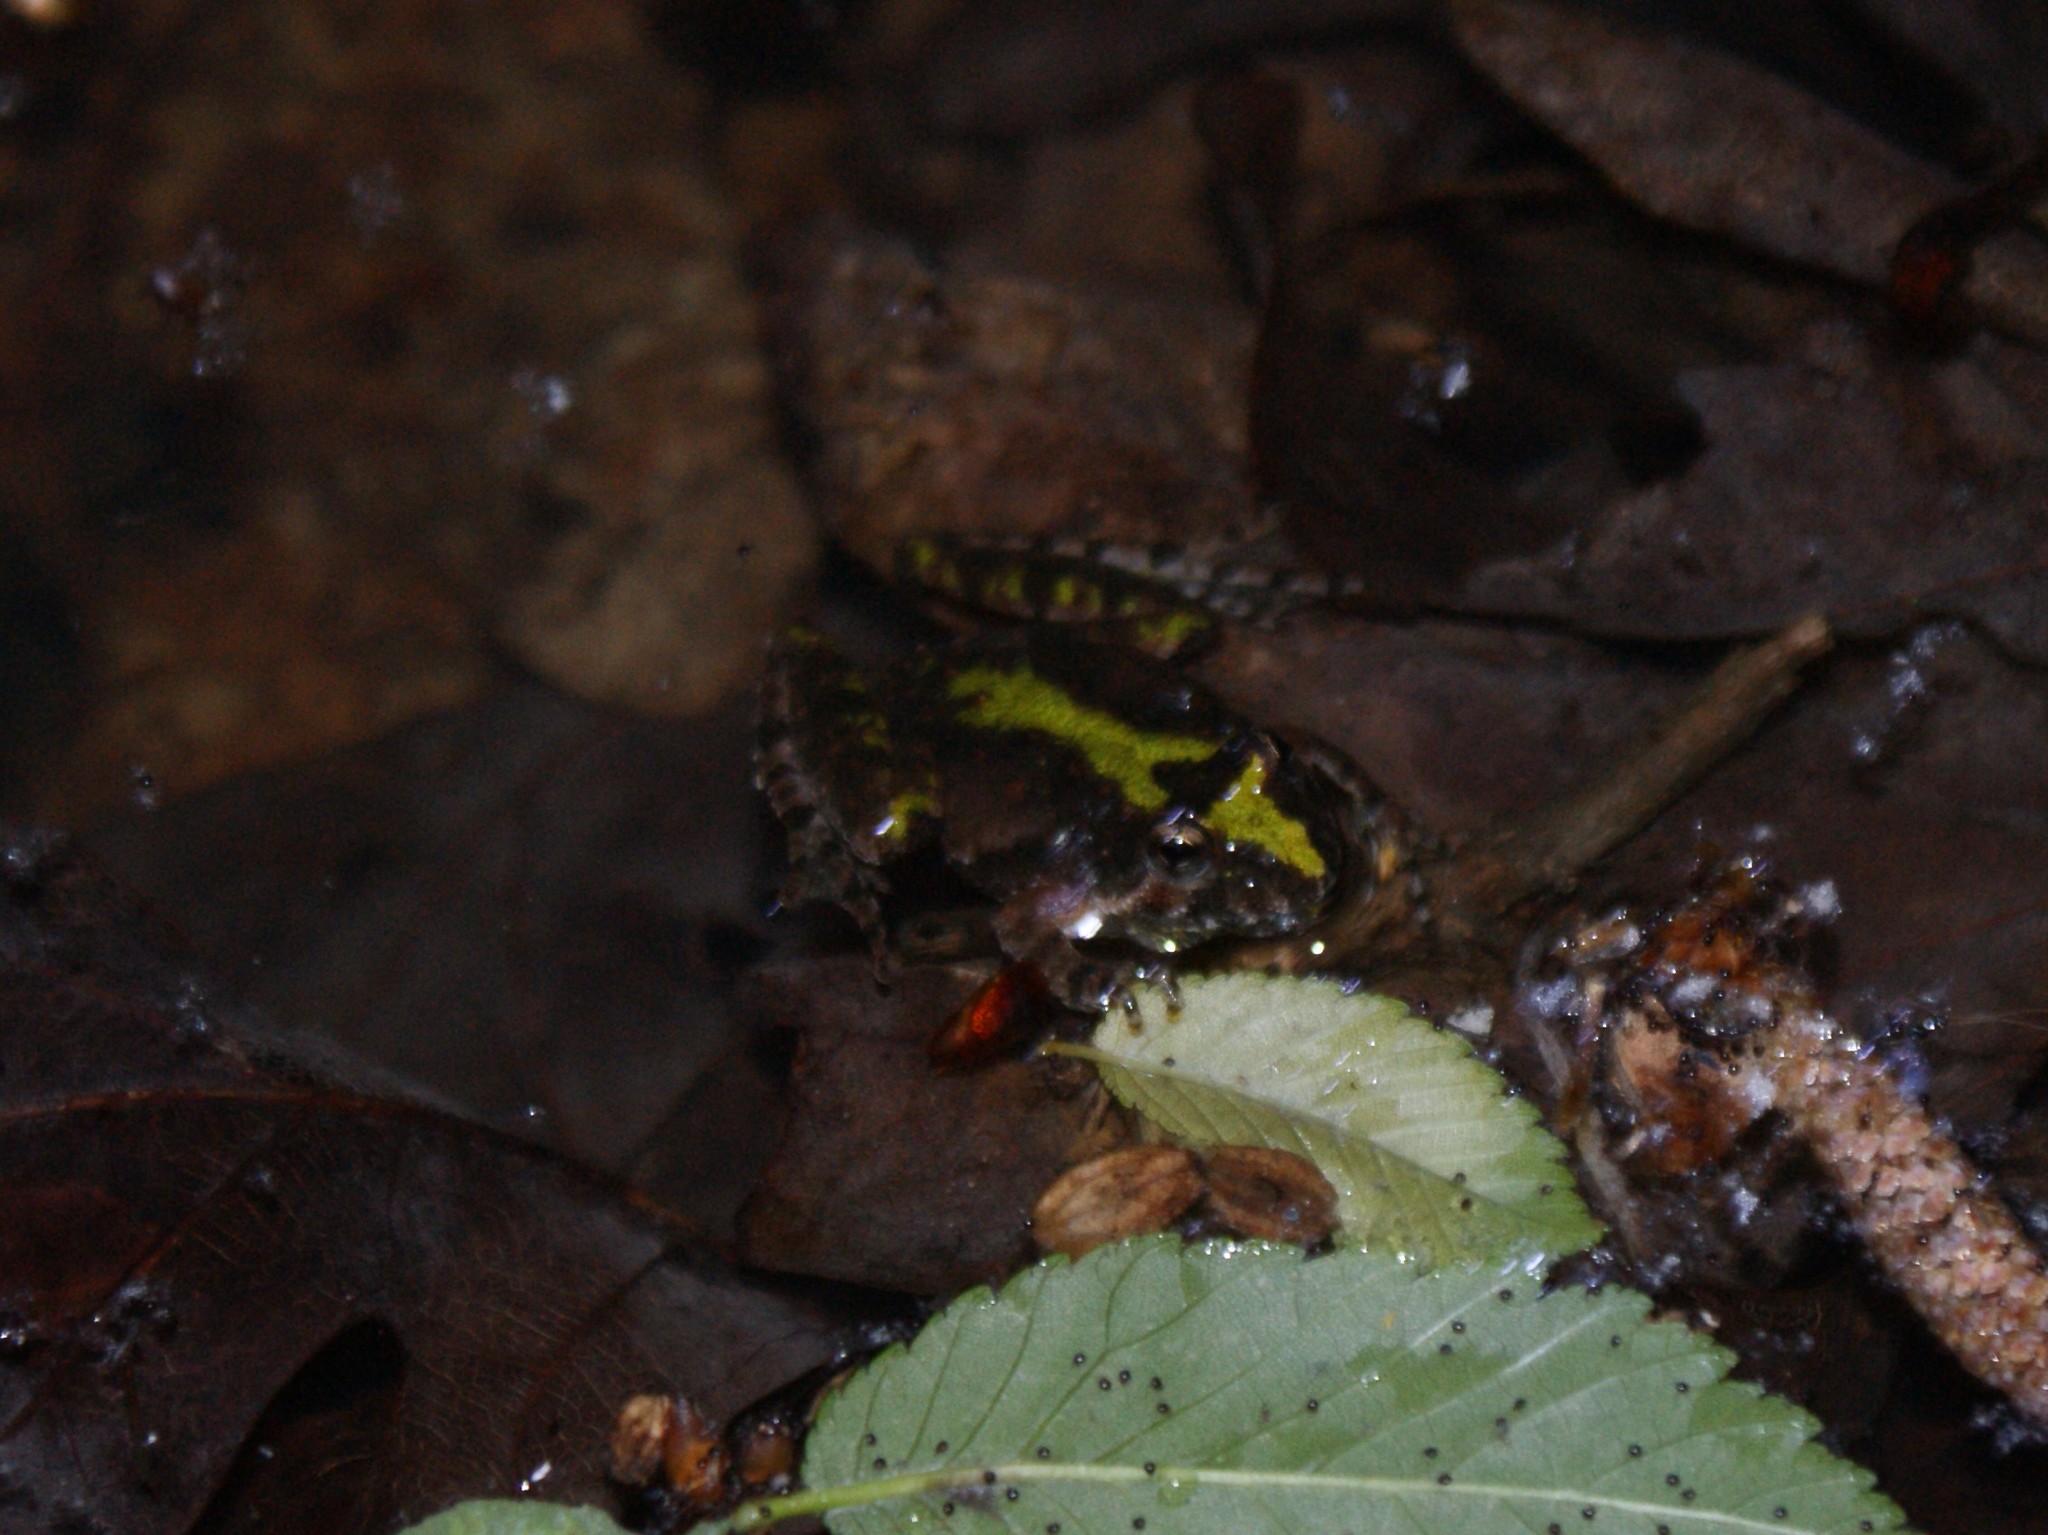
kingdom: Animalia
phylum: Chordata
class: Amphibia
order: Anura
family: Hylidae
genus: Acris
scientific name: Acris crepitans
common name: Northern cricket frog
